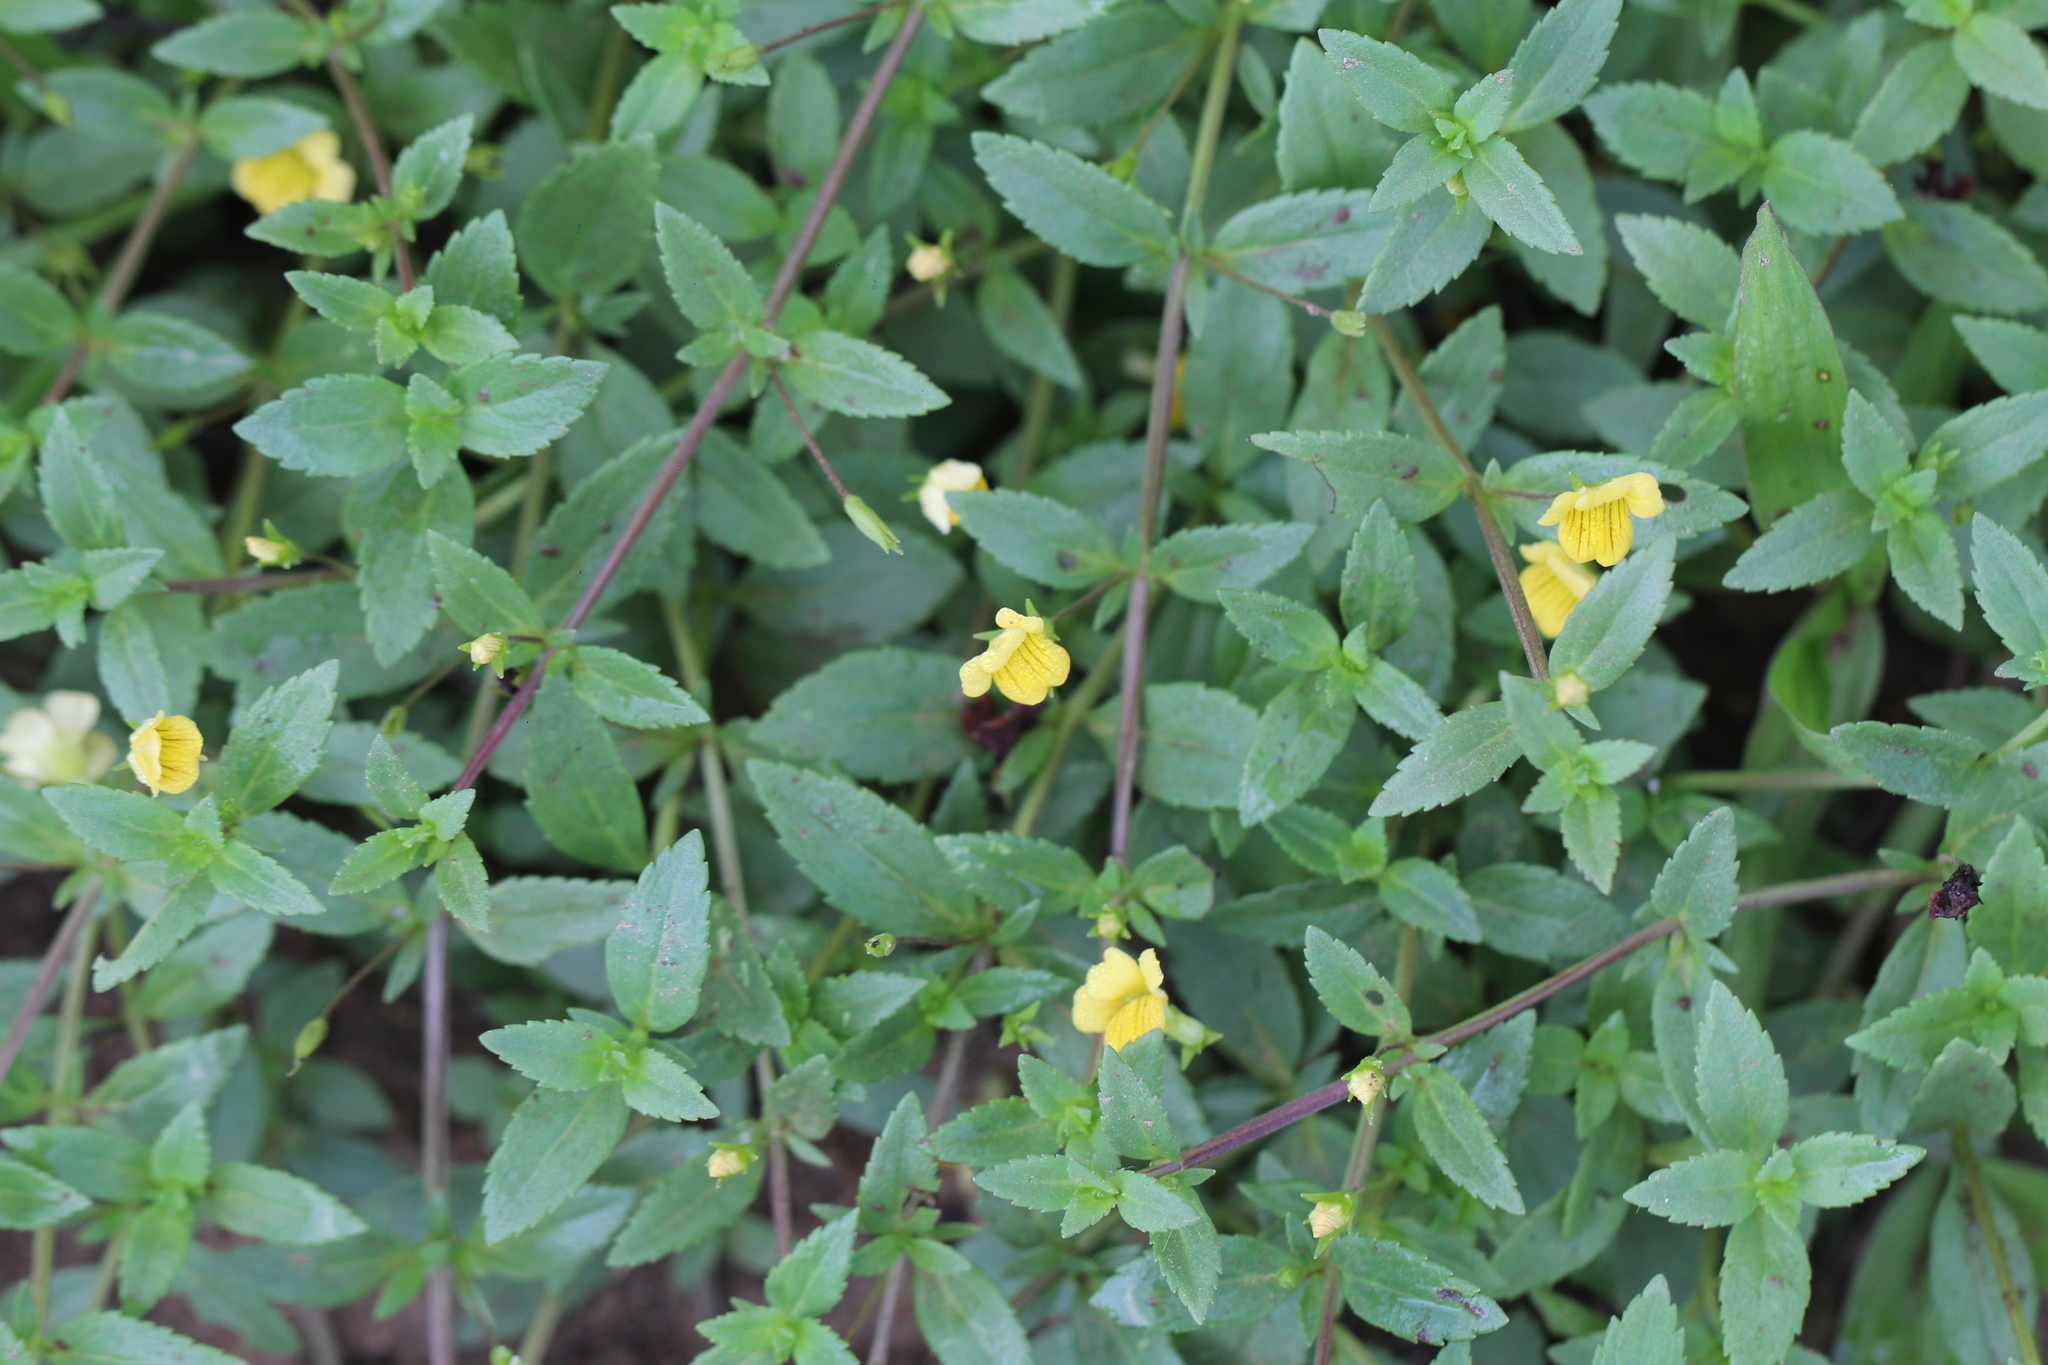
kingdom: Plantae
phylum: Tracheophyta
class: Magnoliopsida
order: Lamiales
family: Plantaginaceae
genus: Mecardonia
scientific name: Mecardonia procumbens
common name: Baby jump-up
